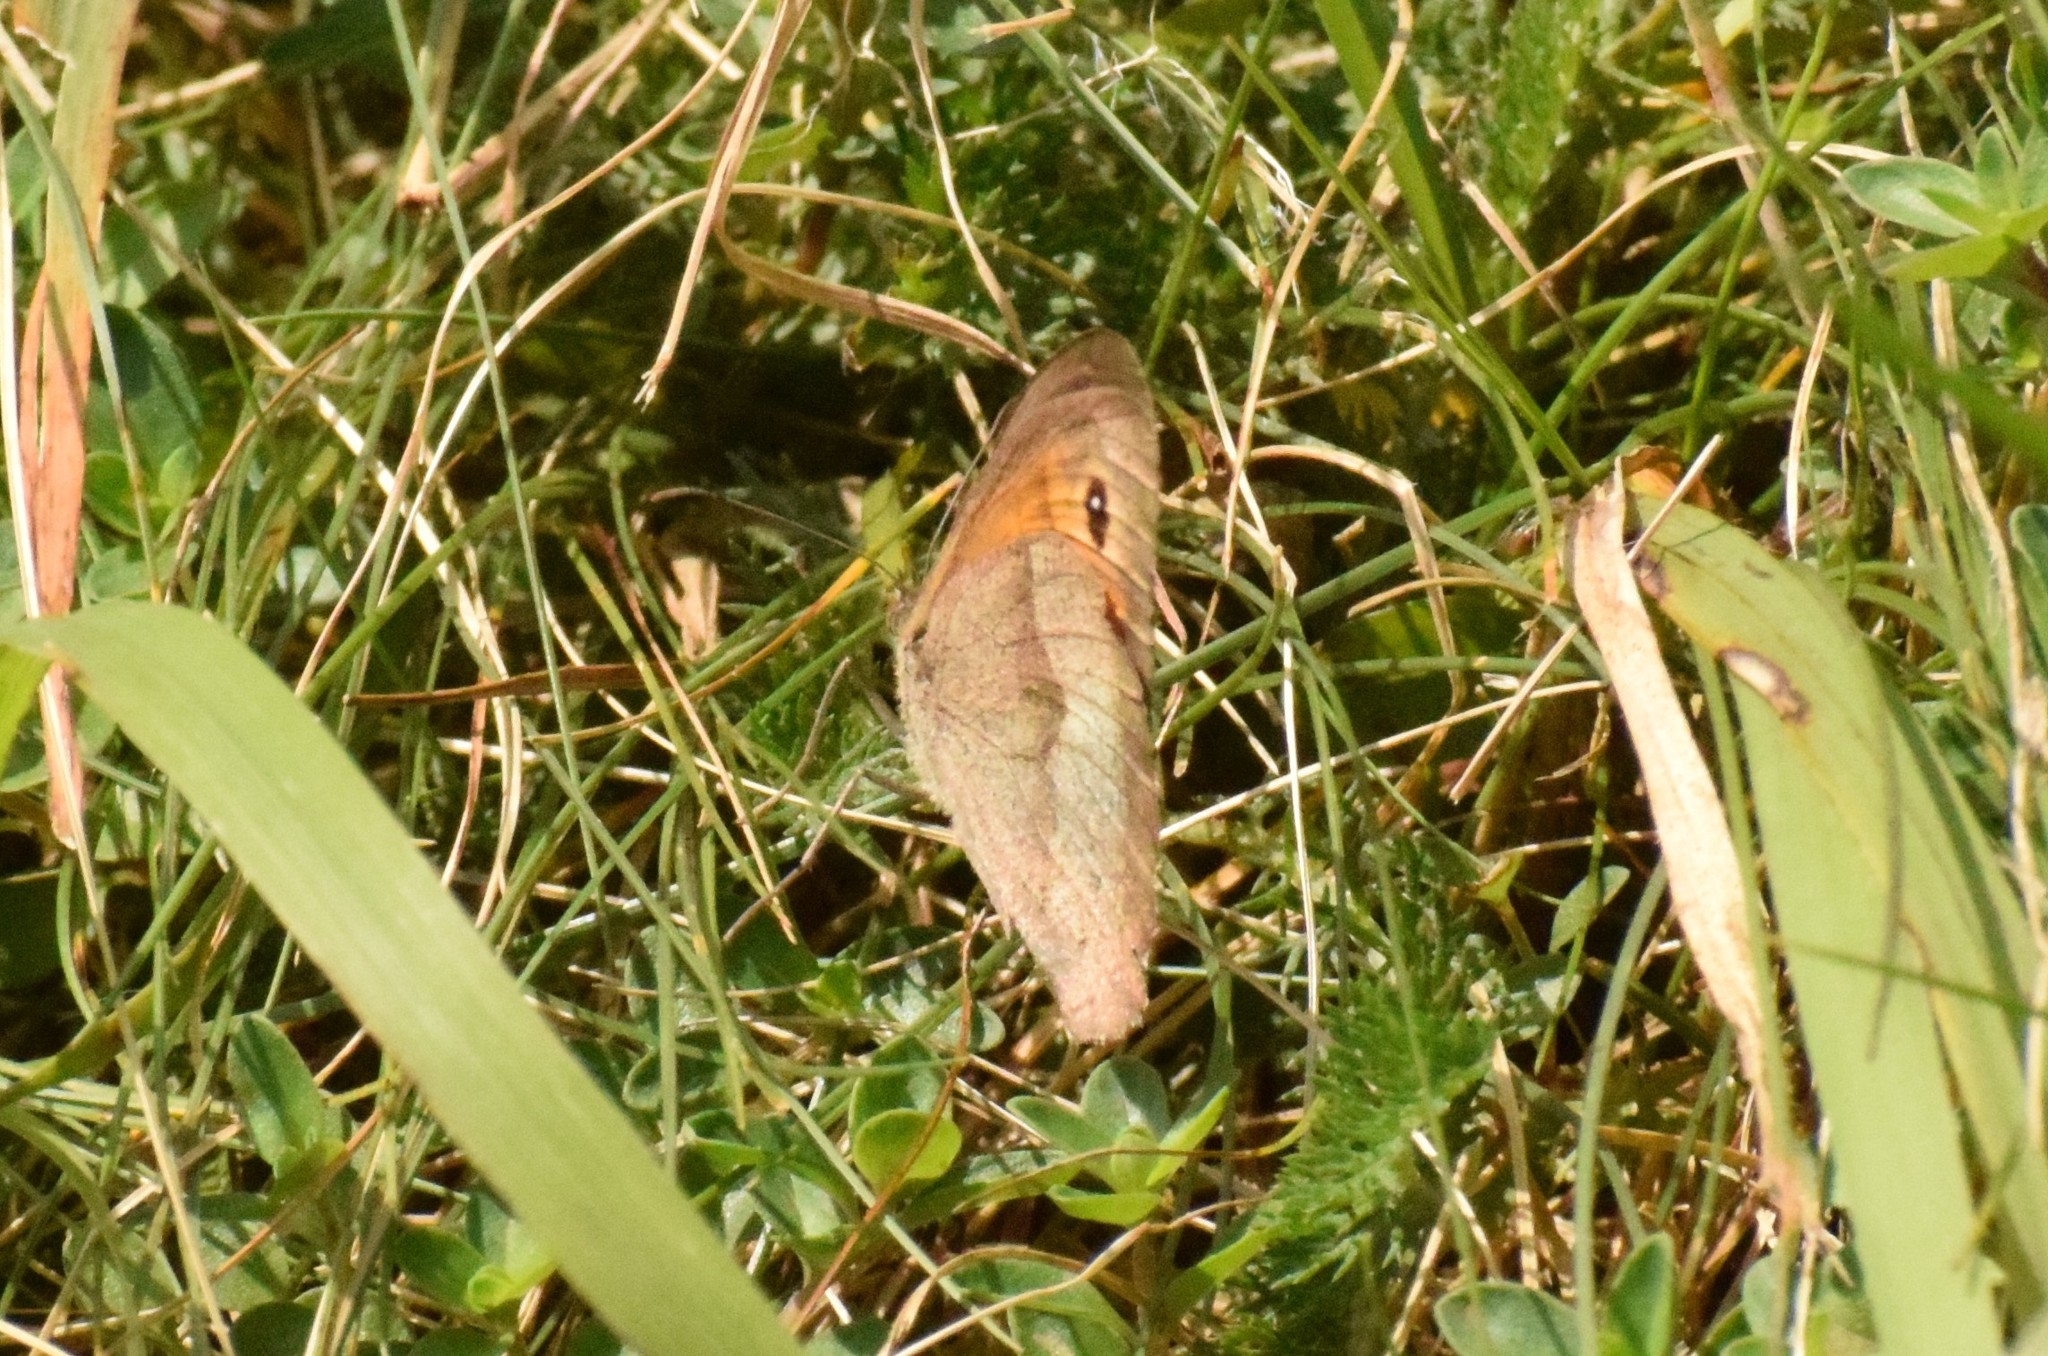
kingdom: Animalia
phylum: Arthropoda
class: Insecta
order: Lepidoptera
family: Nymphalidae
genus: Maniola
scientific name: Maniola jurtina
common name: Meadow brown
